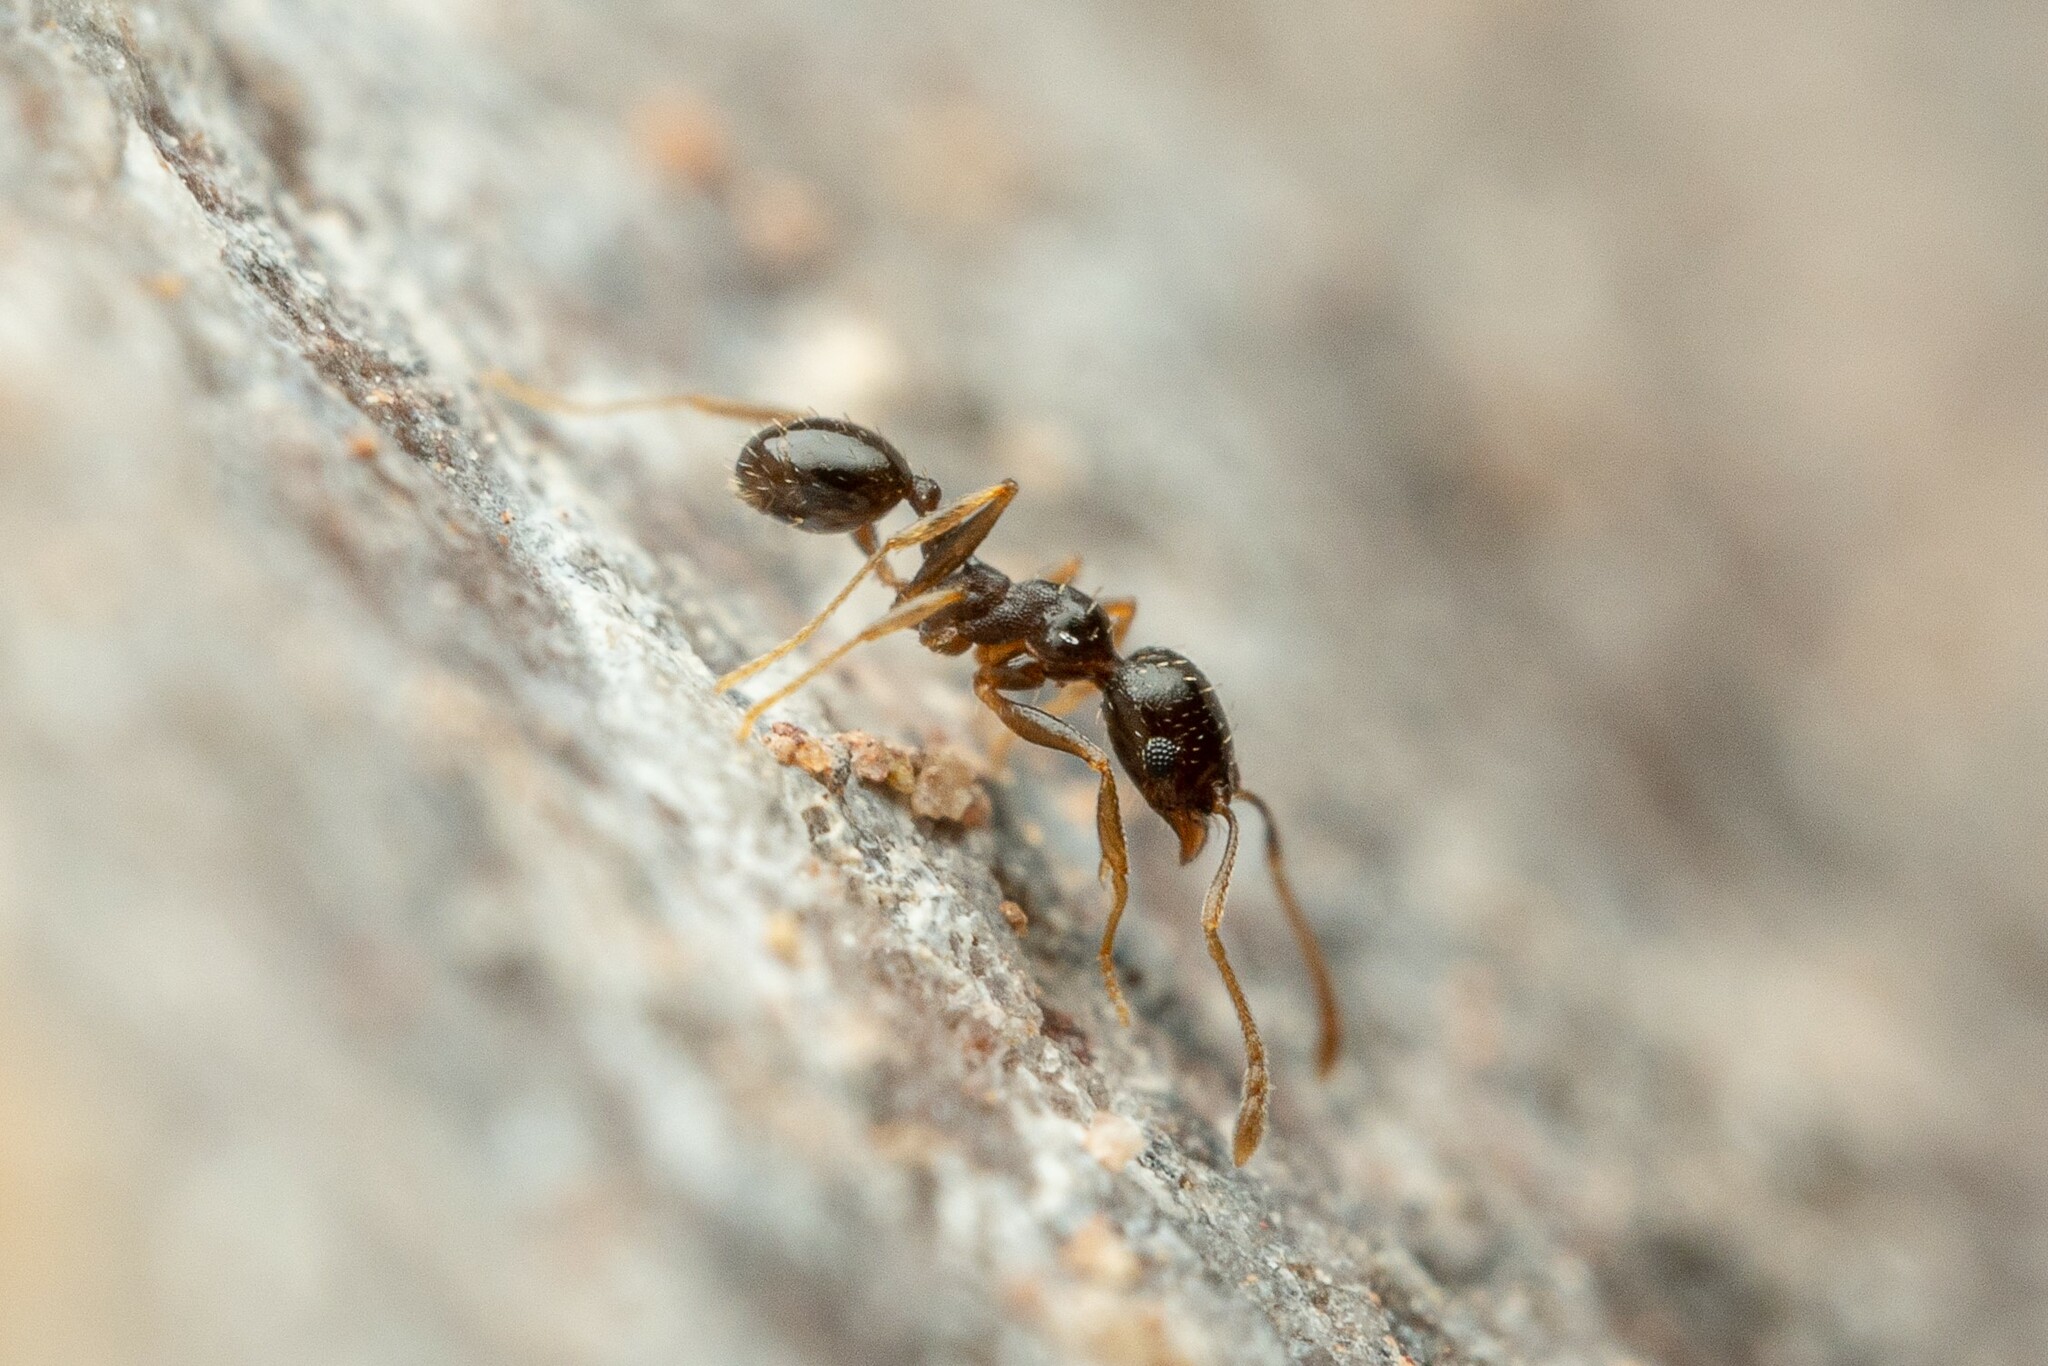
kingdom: Animalia
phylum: Arthropoda
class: Insecta
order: Hymenoptera
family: Formicidae
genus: Pheidole
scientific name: Pheidole
